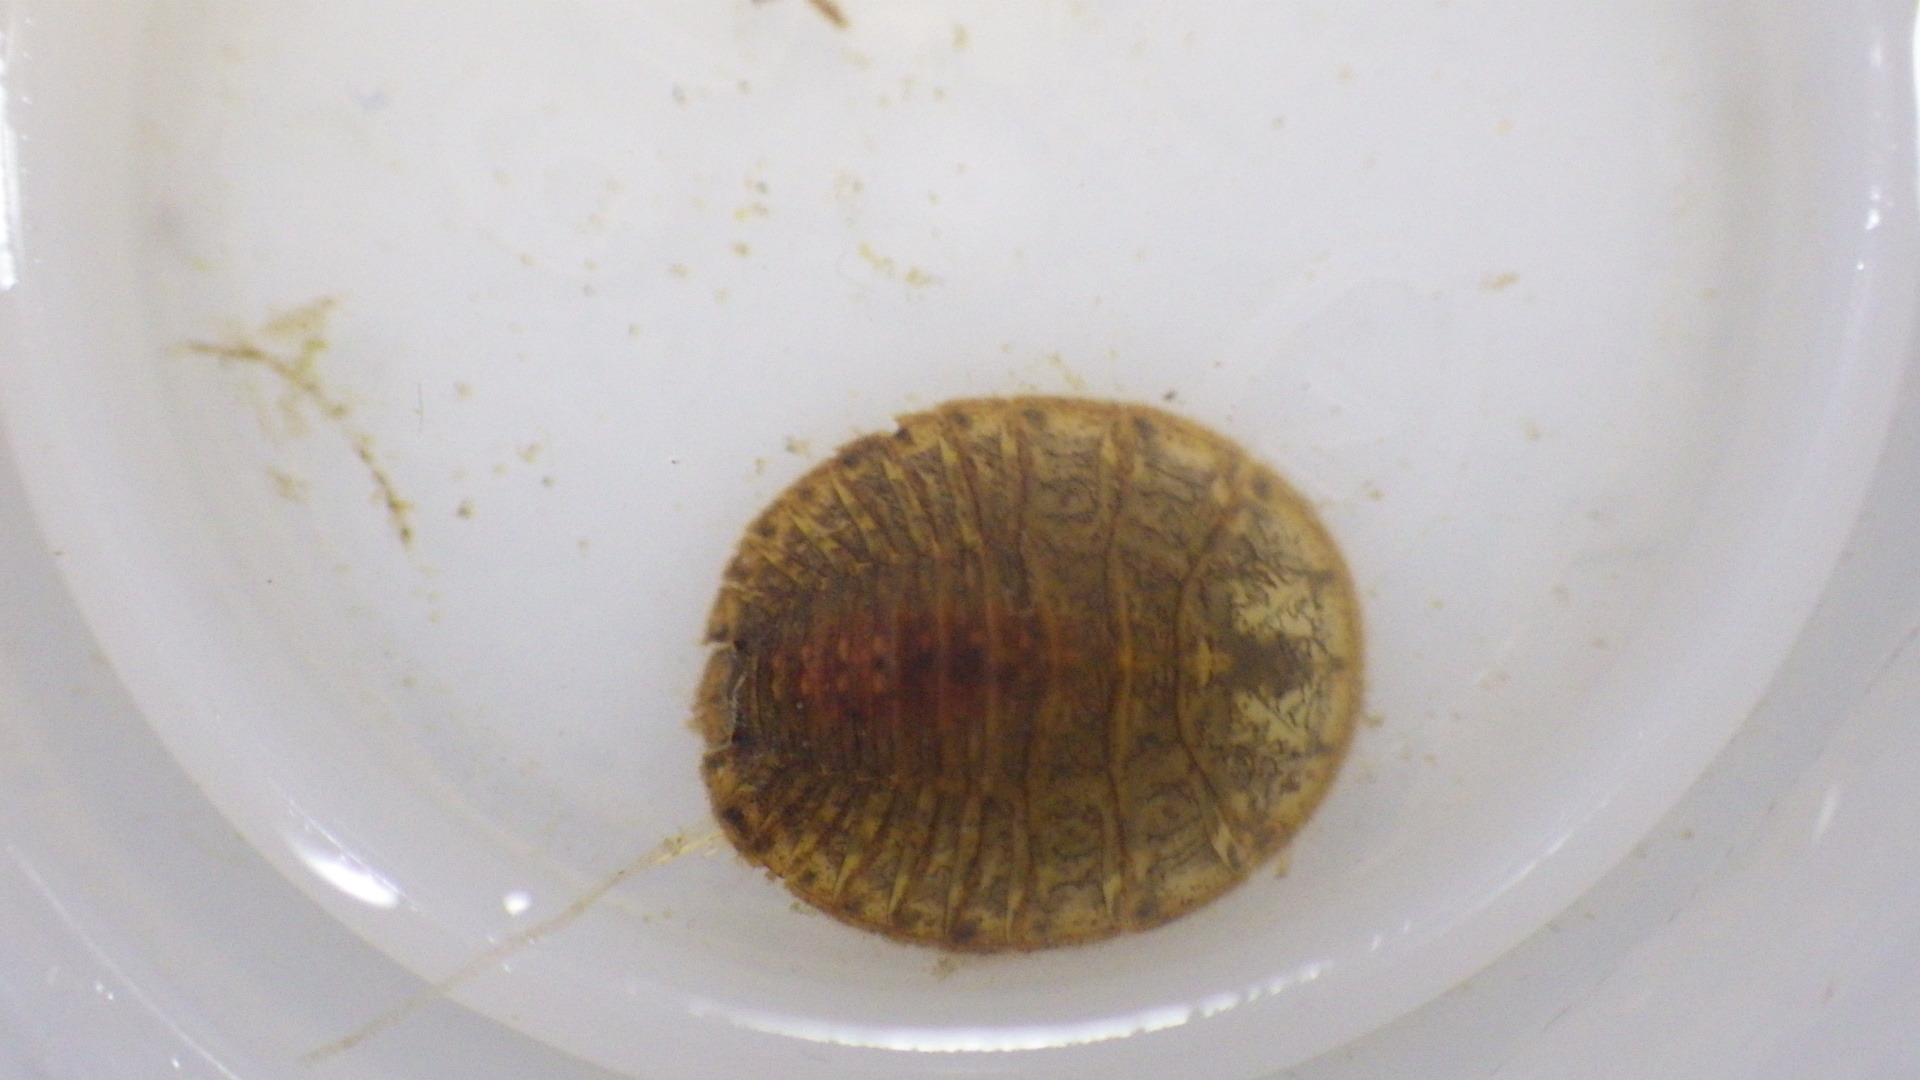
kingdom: Animalia
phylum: Arthropoda
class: Insecta
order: Coleoptera
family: Psephenidae
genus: Psephenus
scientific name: Psephenus herricki
